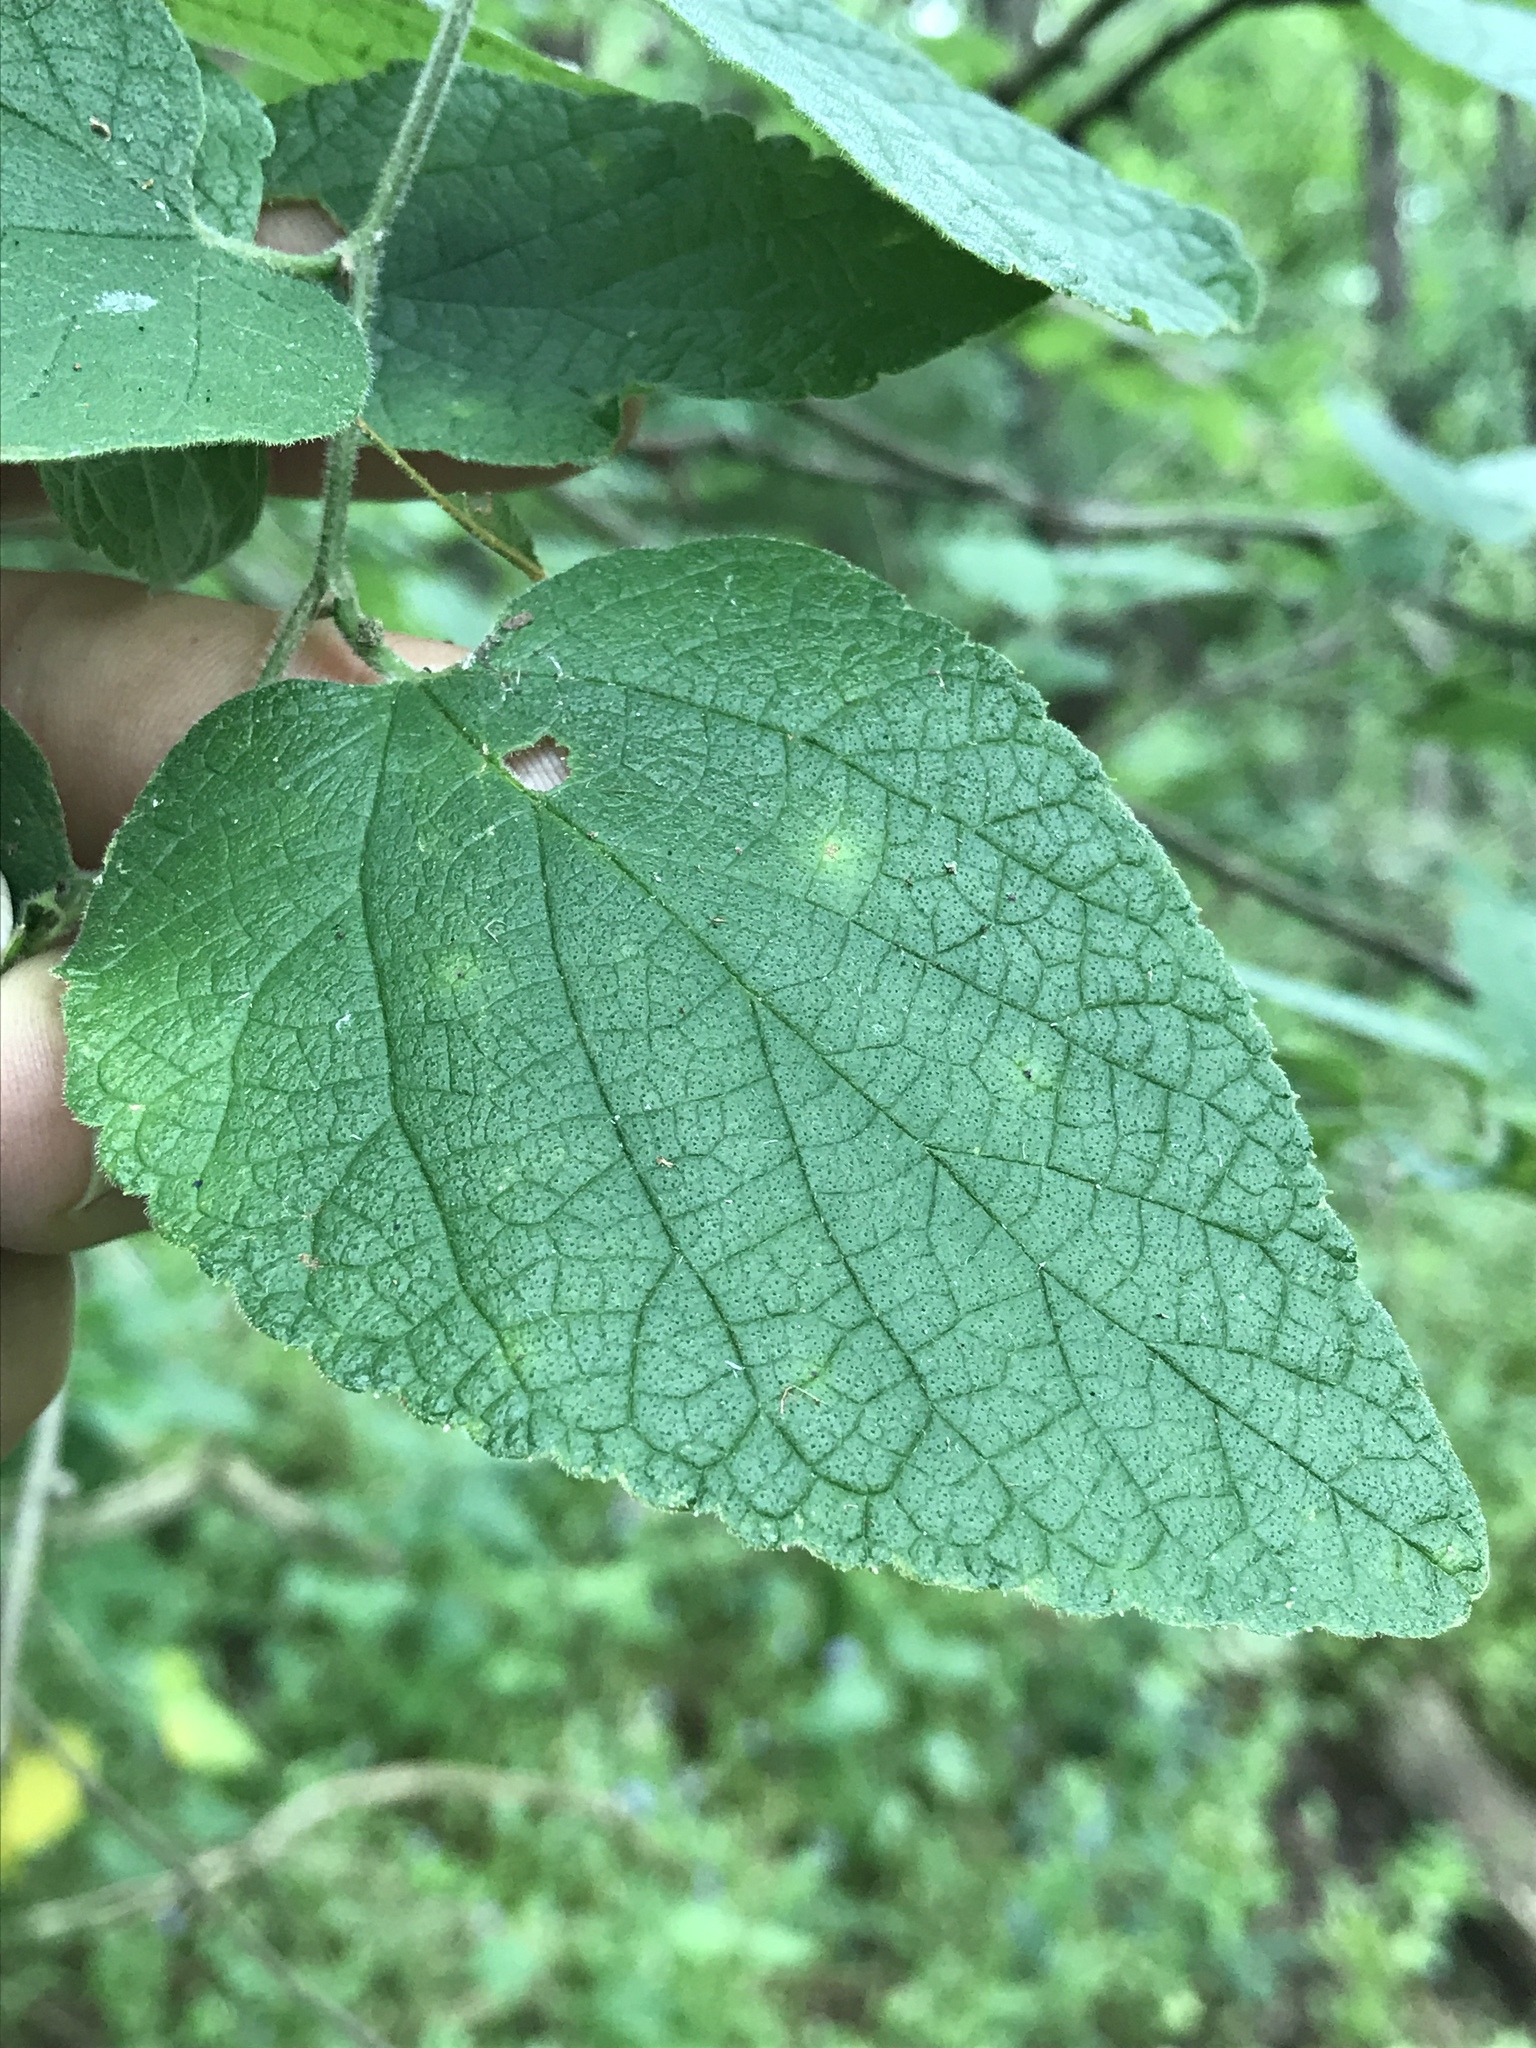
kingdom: Plantae
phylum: Tracheophyta
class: Magnoliopsida
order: Rosales
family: Cannabaceae
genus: Celtis
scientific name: Celtis reticulata
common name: Netleaf hackberry
